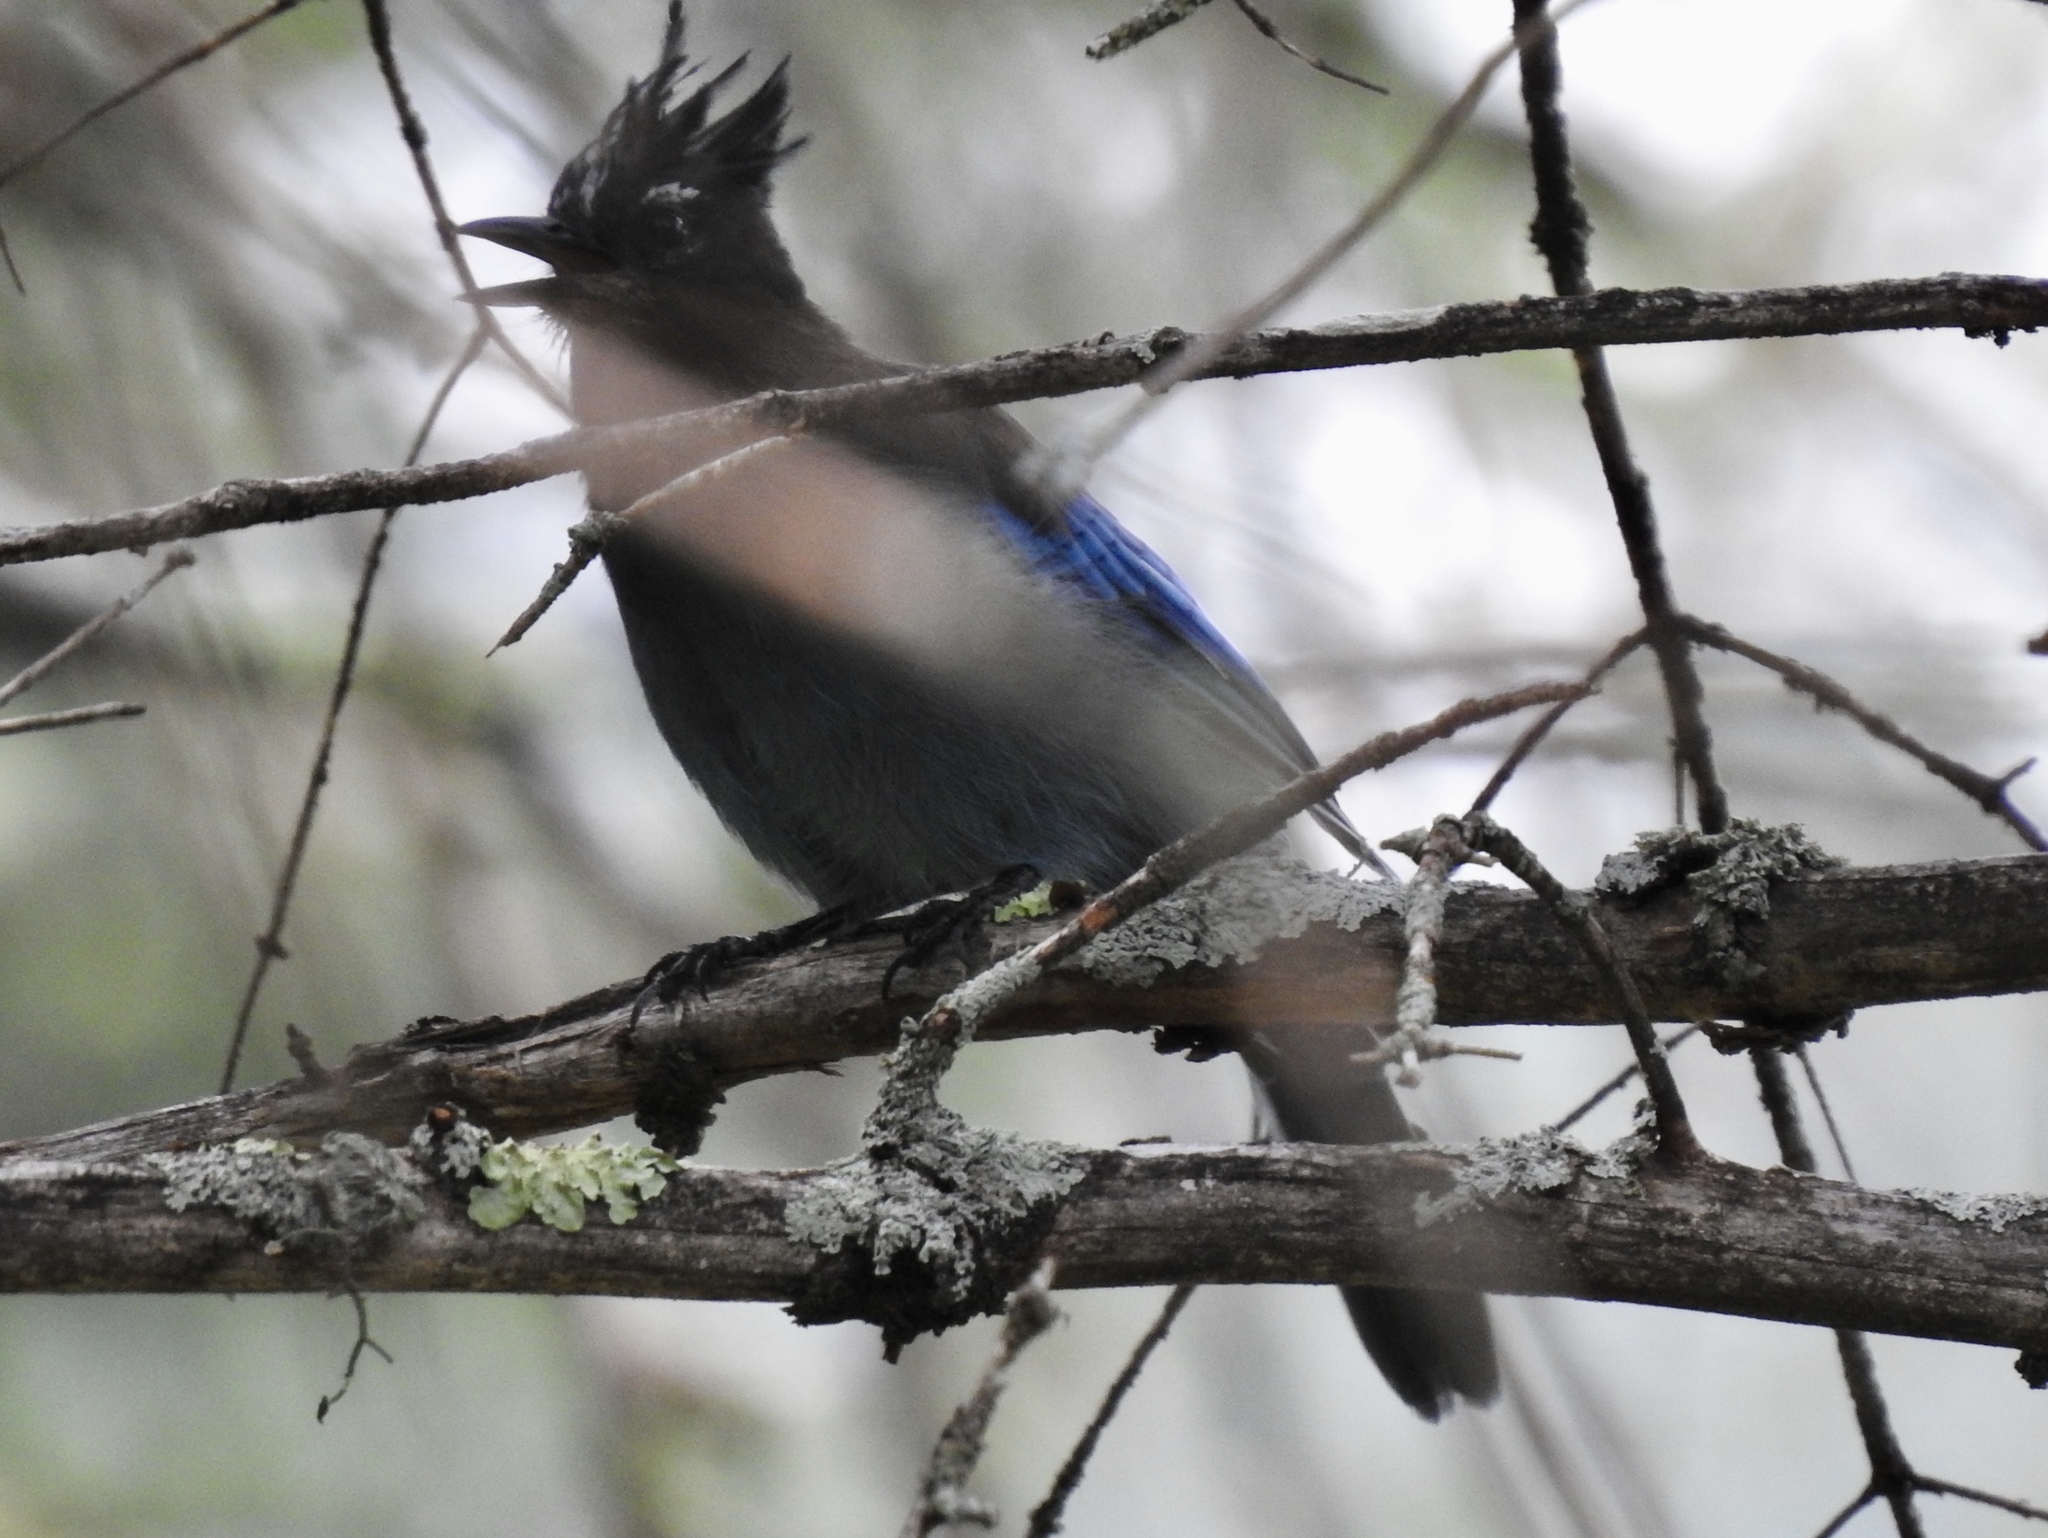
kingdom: Animalia
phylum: Chordata
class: Aves
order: Passeriformes
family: Corvidae
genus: Cyanocitta
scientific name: Cyanocitta stelleri
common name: Steller's jay
